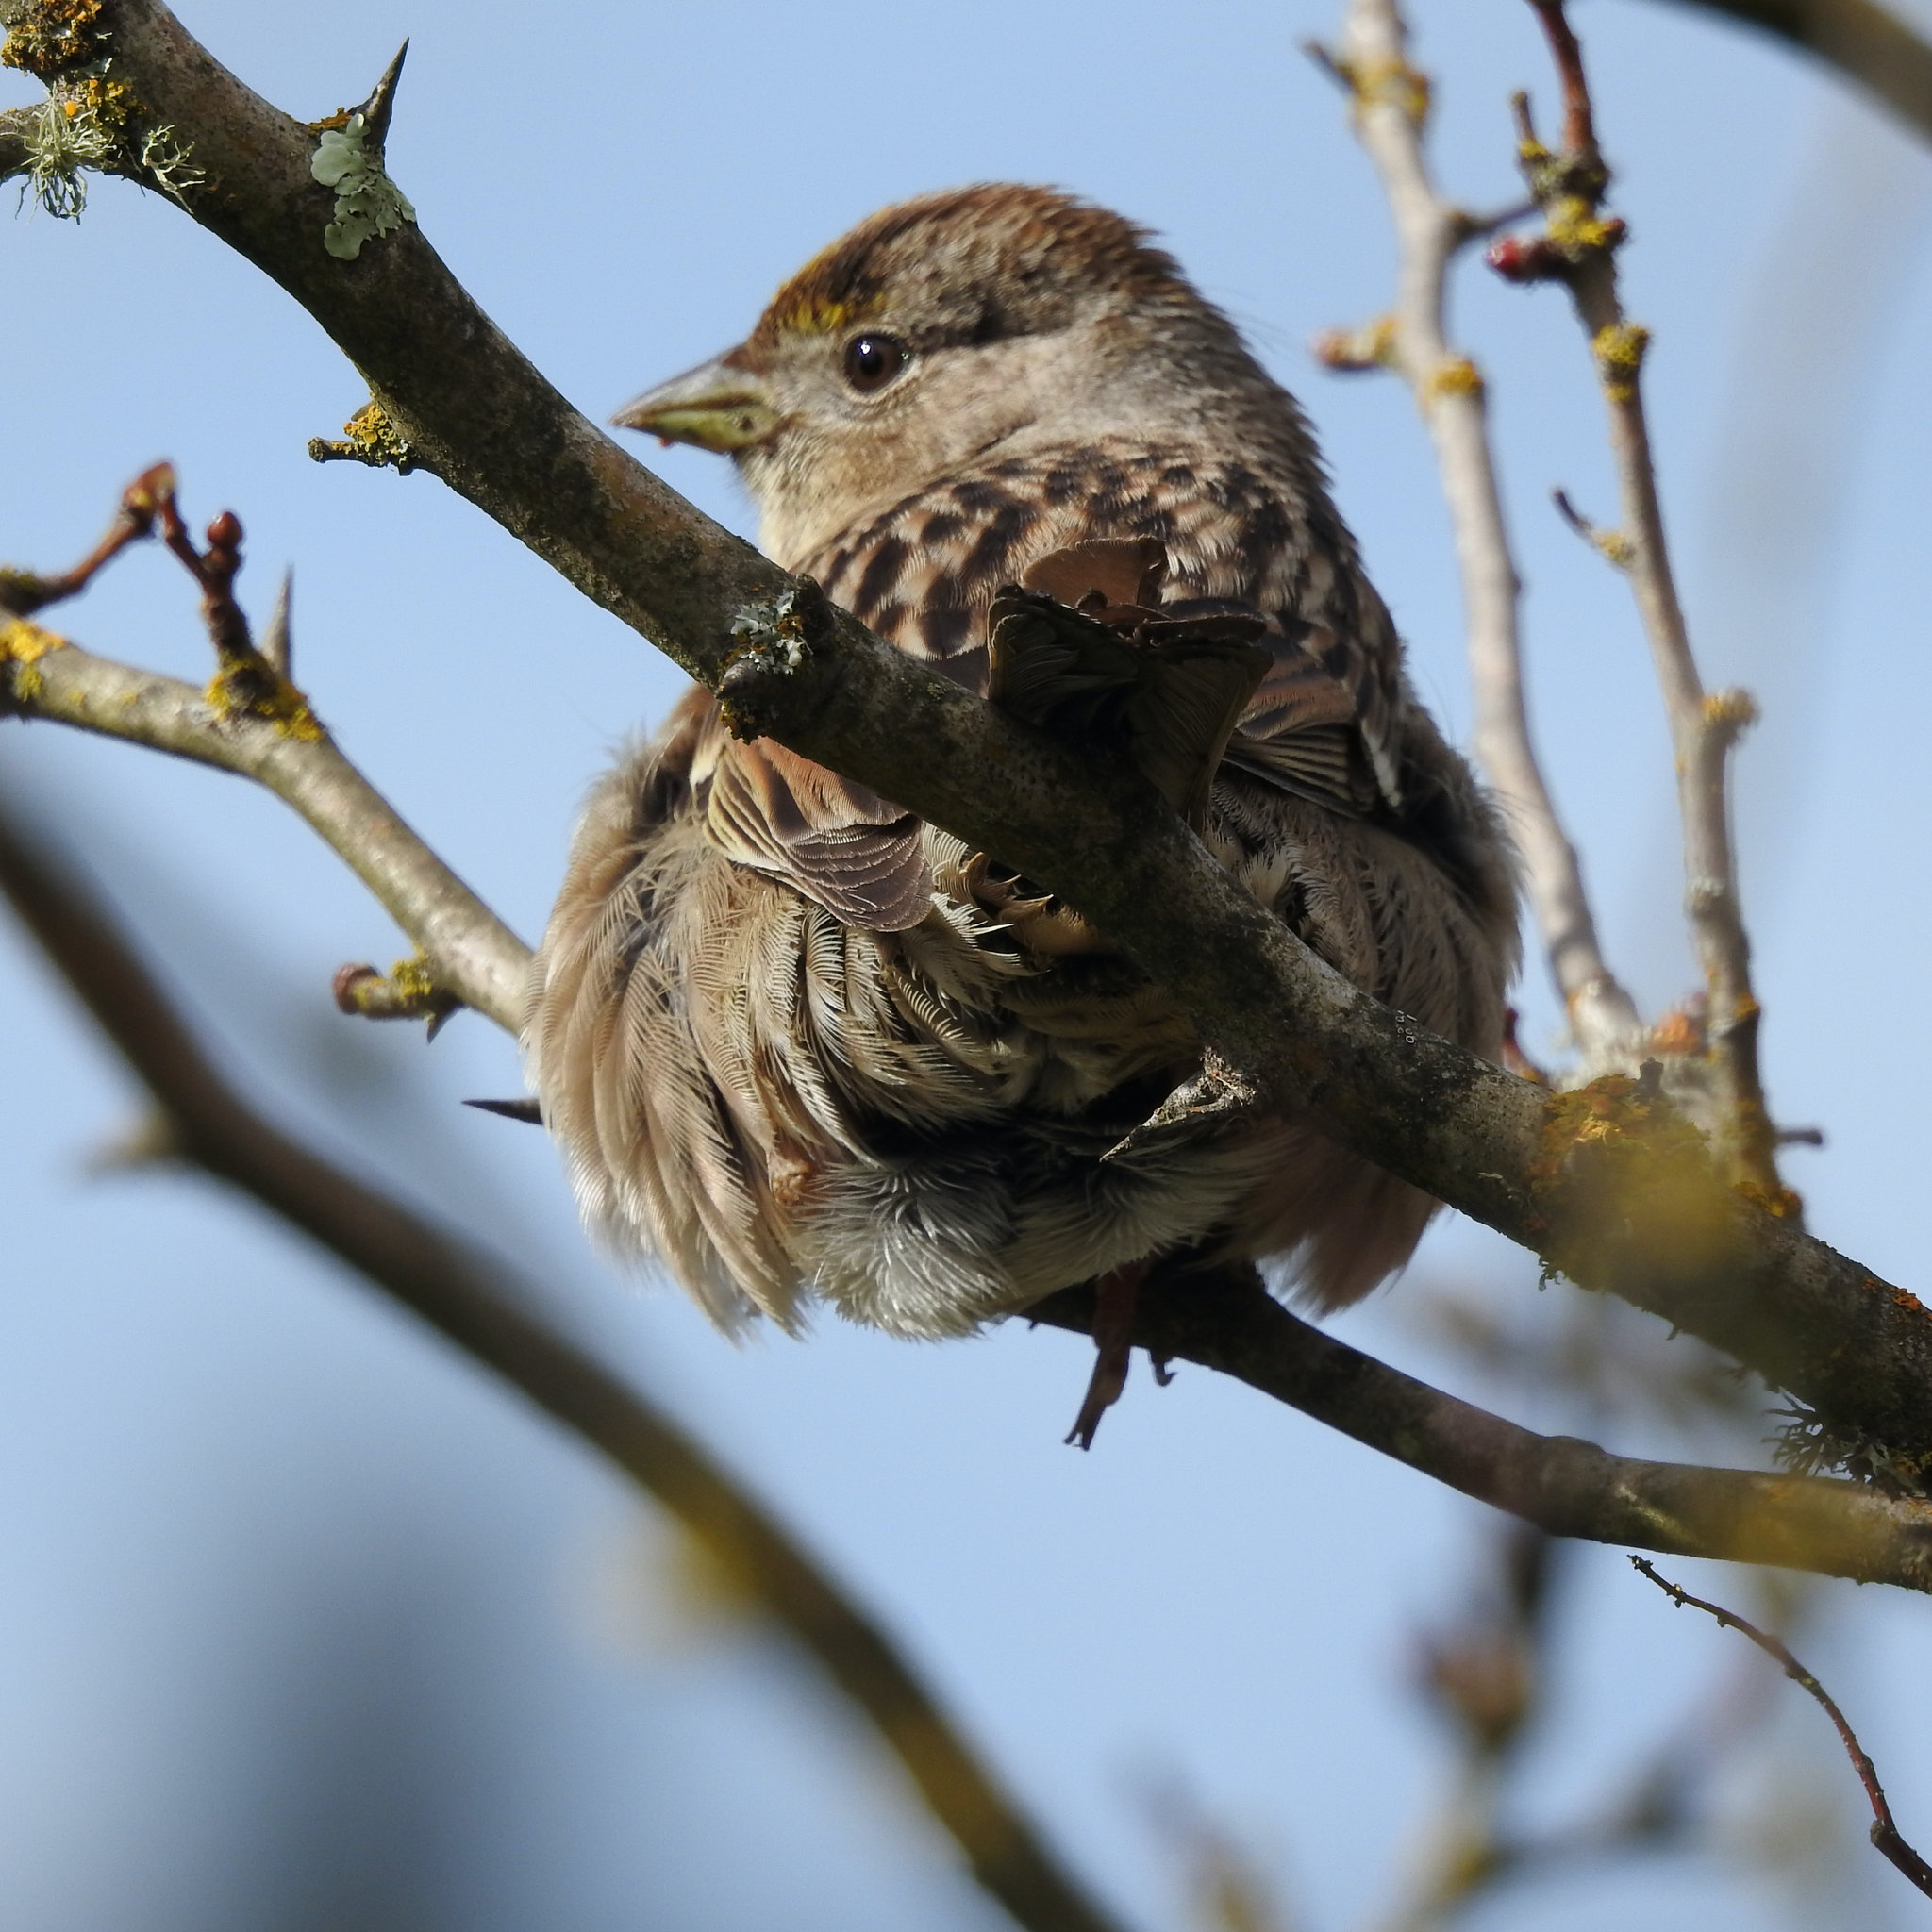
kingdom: Animalia
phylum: Chordata
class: Aves
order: Passeriformes
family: Passerellidae
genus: Zonotrichia
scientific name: Zonotrichia atricapilla
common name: Golden-crowned sparrow
